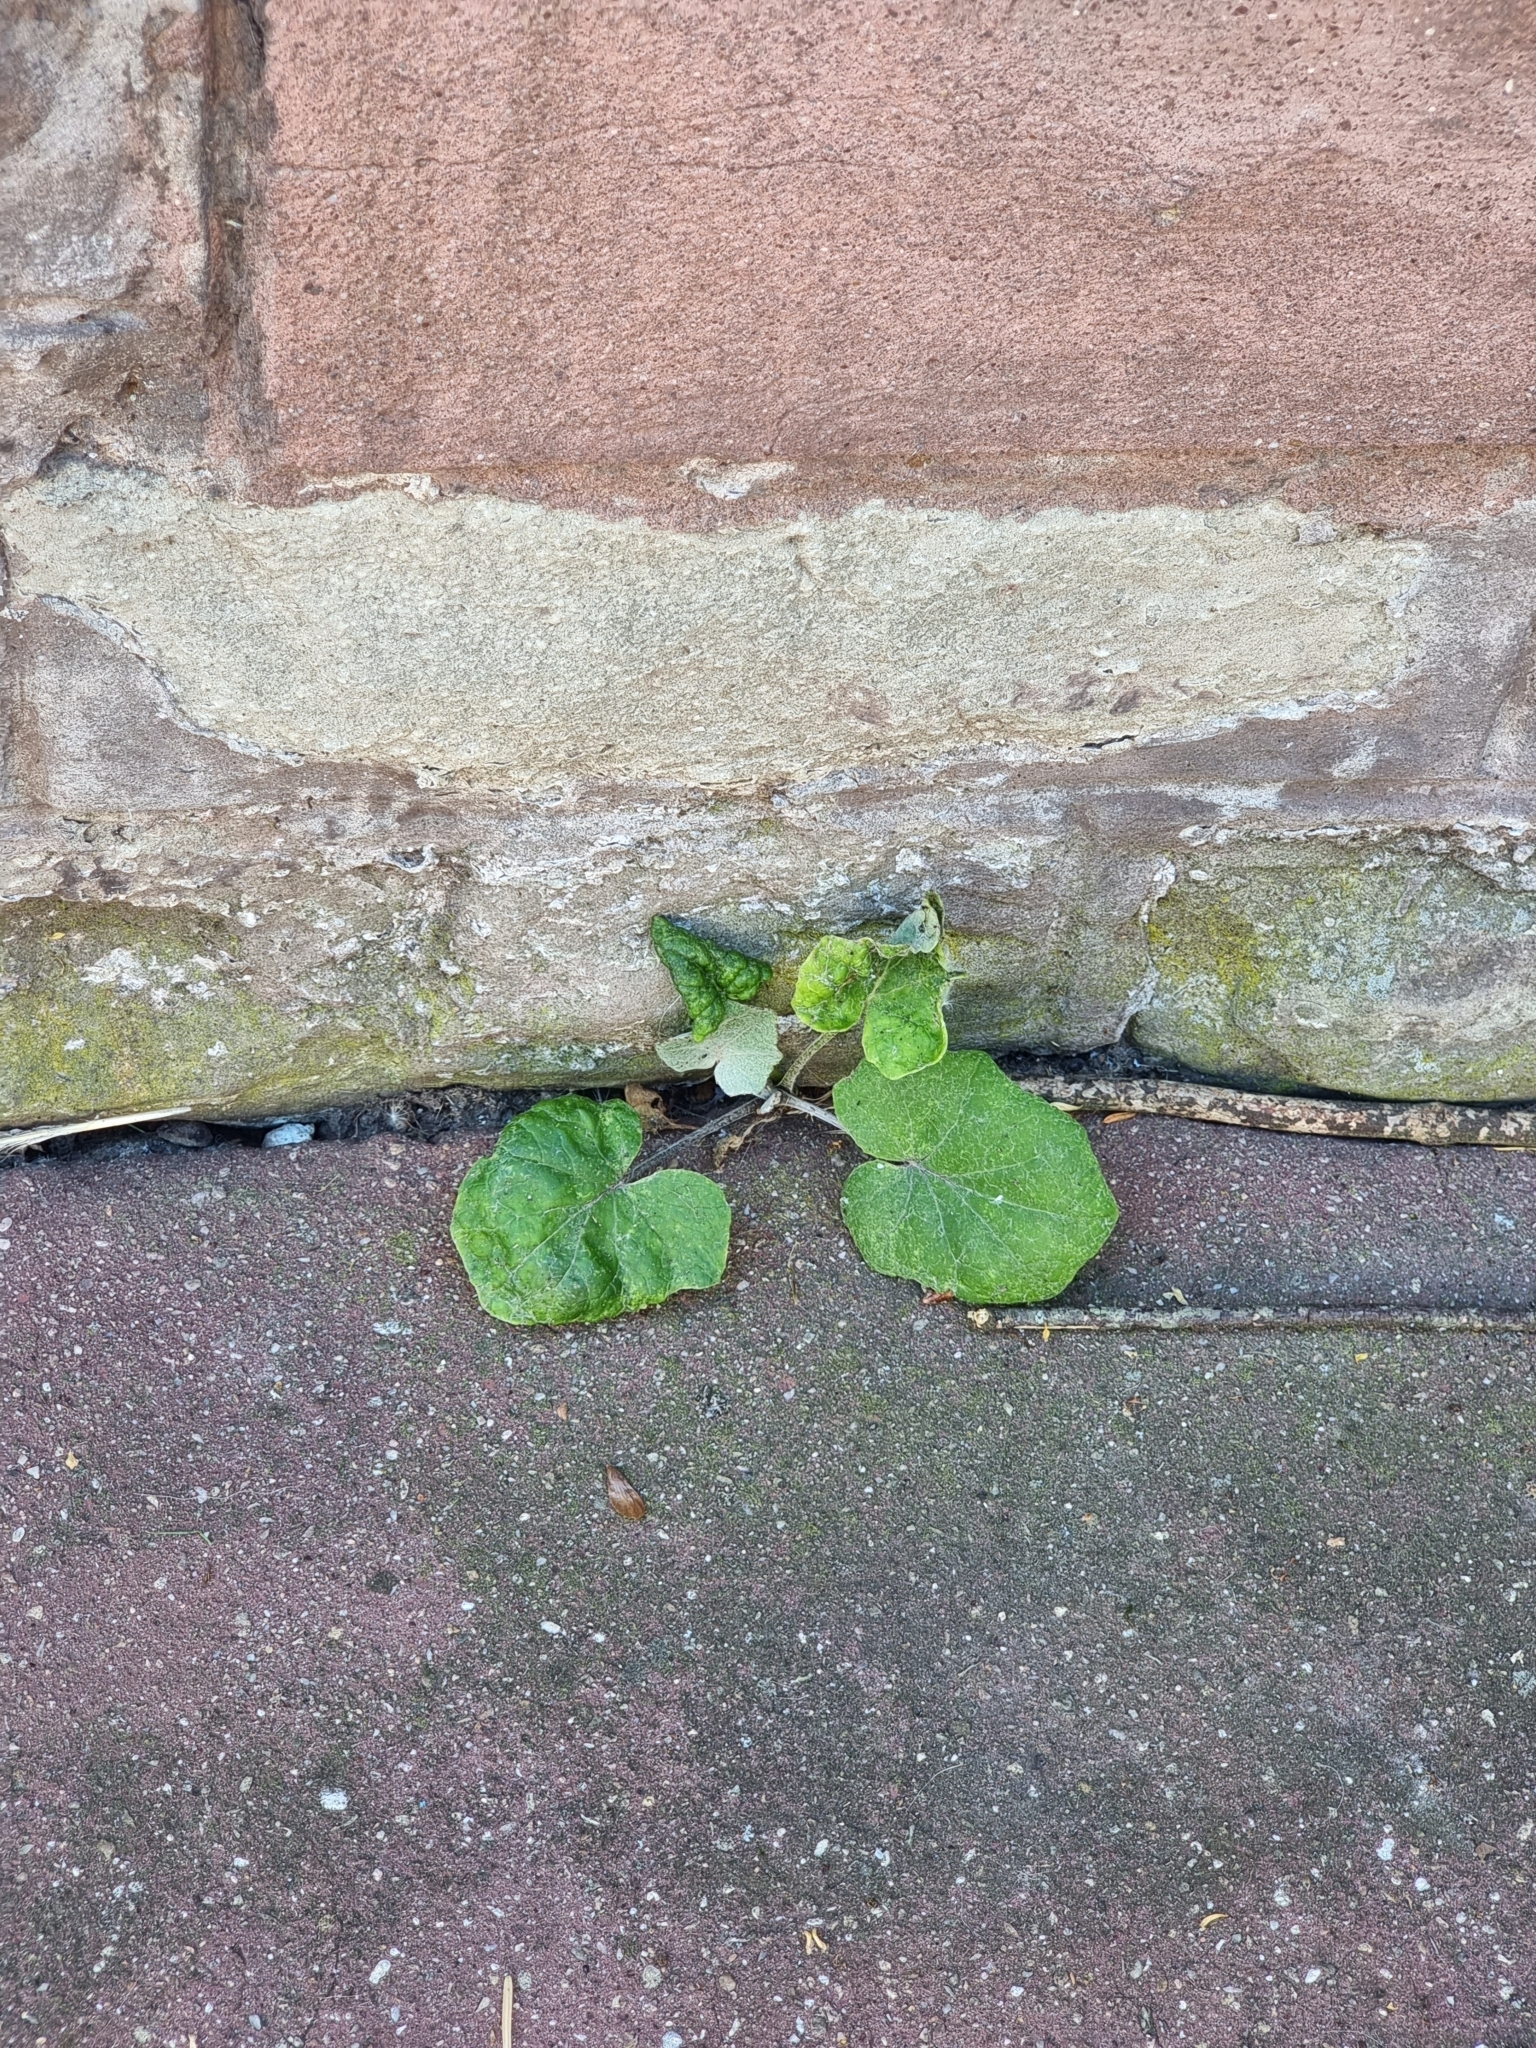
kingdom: Plantae
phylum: Tracheophyta
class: Magnoliopsida
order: Asterales
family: Asteraceae
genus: Tussilago
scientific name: Tussilago farfara
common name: Coltsfoot
